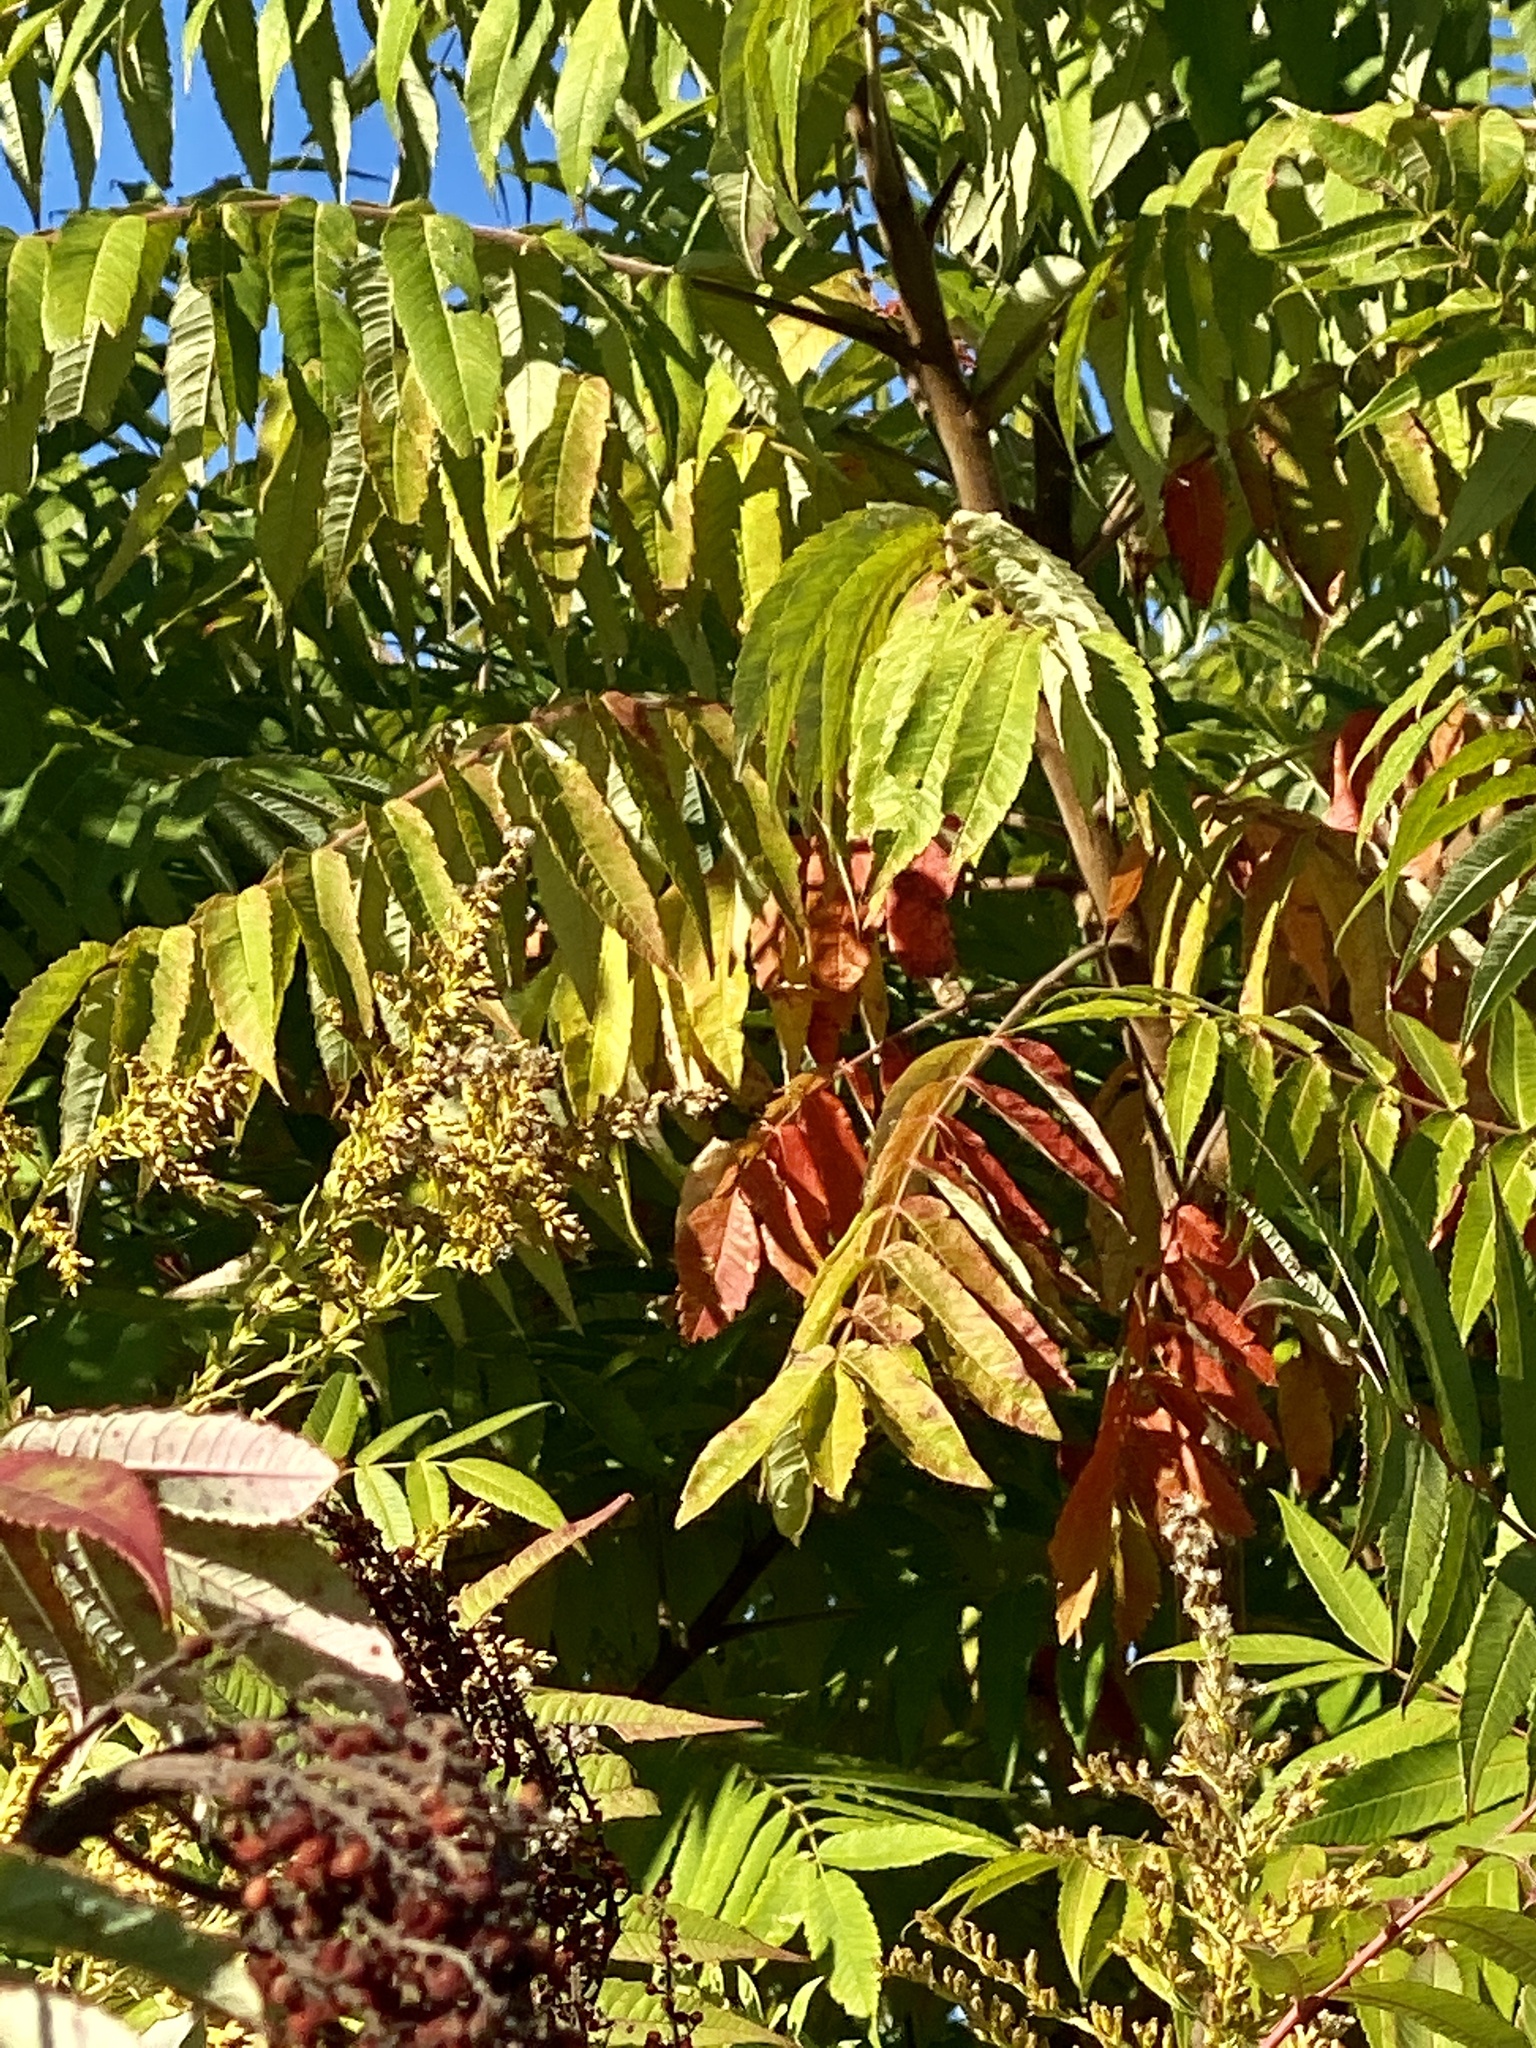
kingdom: Plantae
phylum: Tracheophyta
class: Magnoliopsida
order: Sapindales
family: Anacardiaceae
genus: Rhus
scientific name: Rhus glabra
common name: Scarlet sumac
